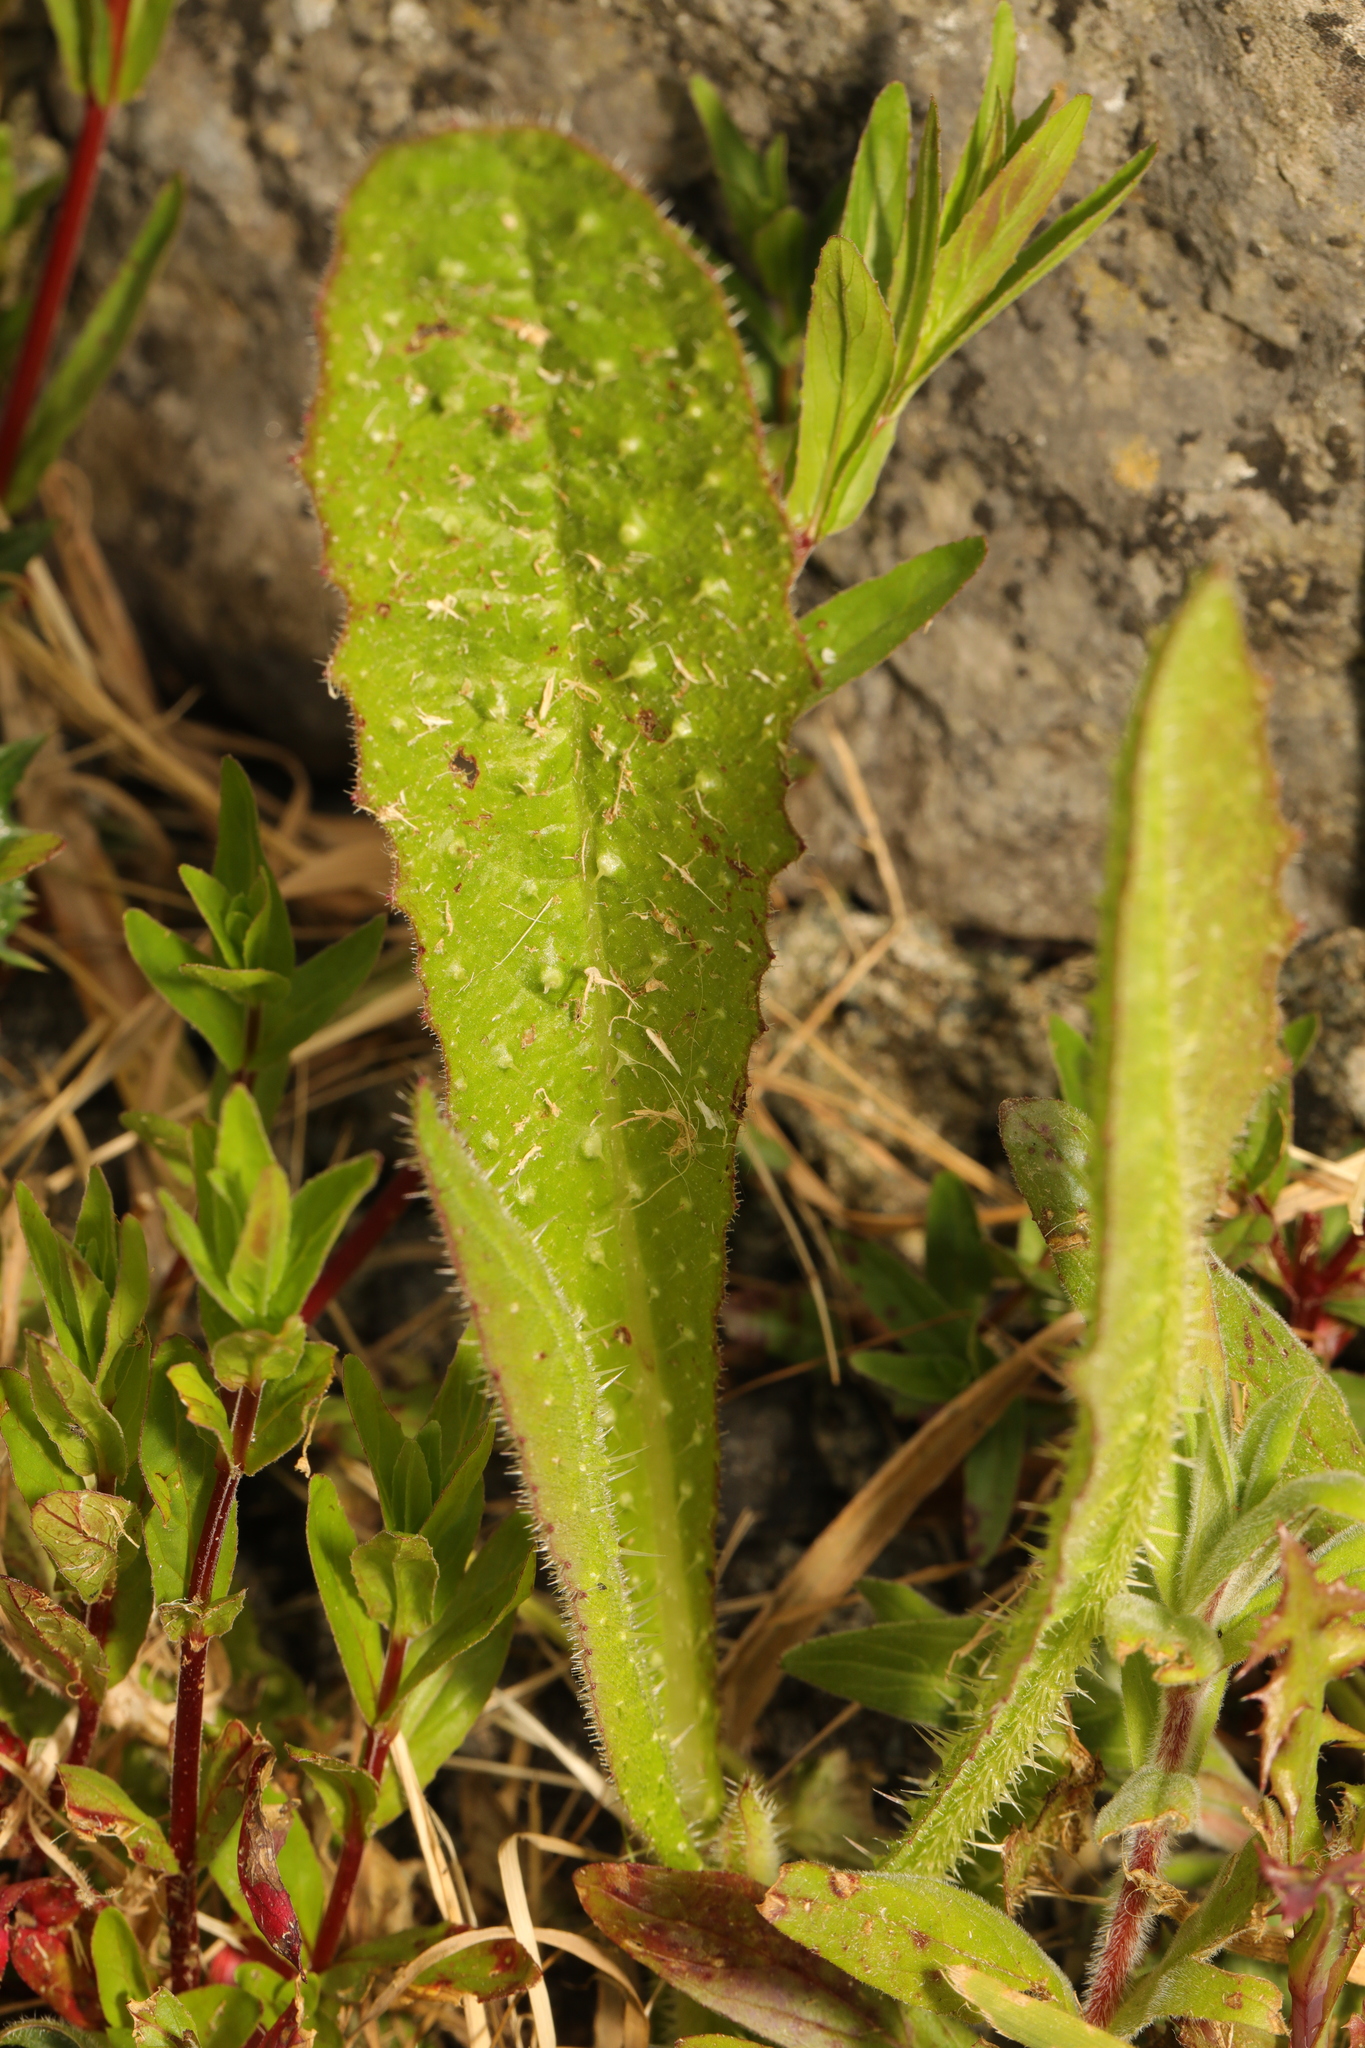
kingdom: Plantae
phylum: Tracheophyta
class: Magnoliopsida
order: Asterales
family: Asteraceae
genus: Helminthotheca
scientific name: Helminthotheca echioides
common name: Ox-tongue
